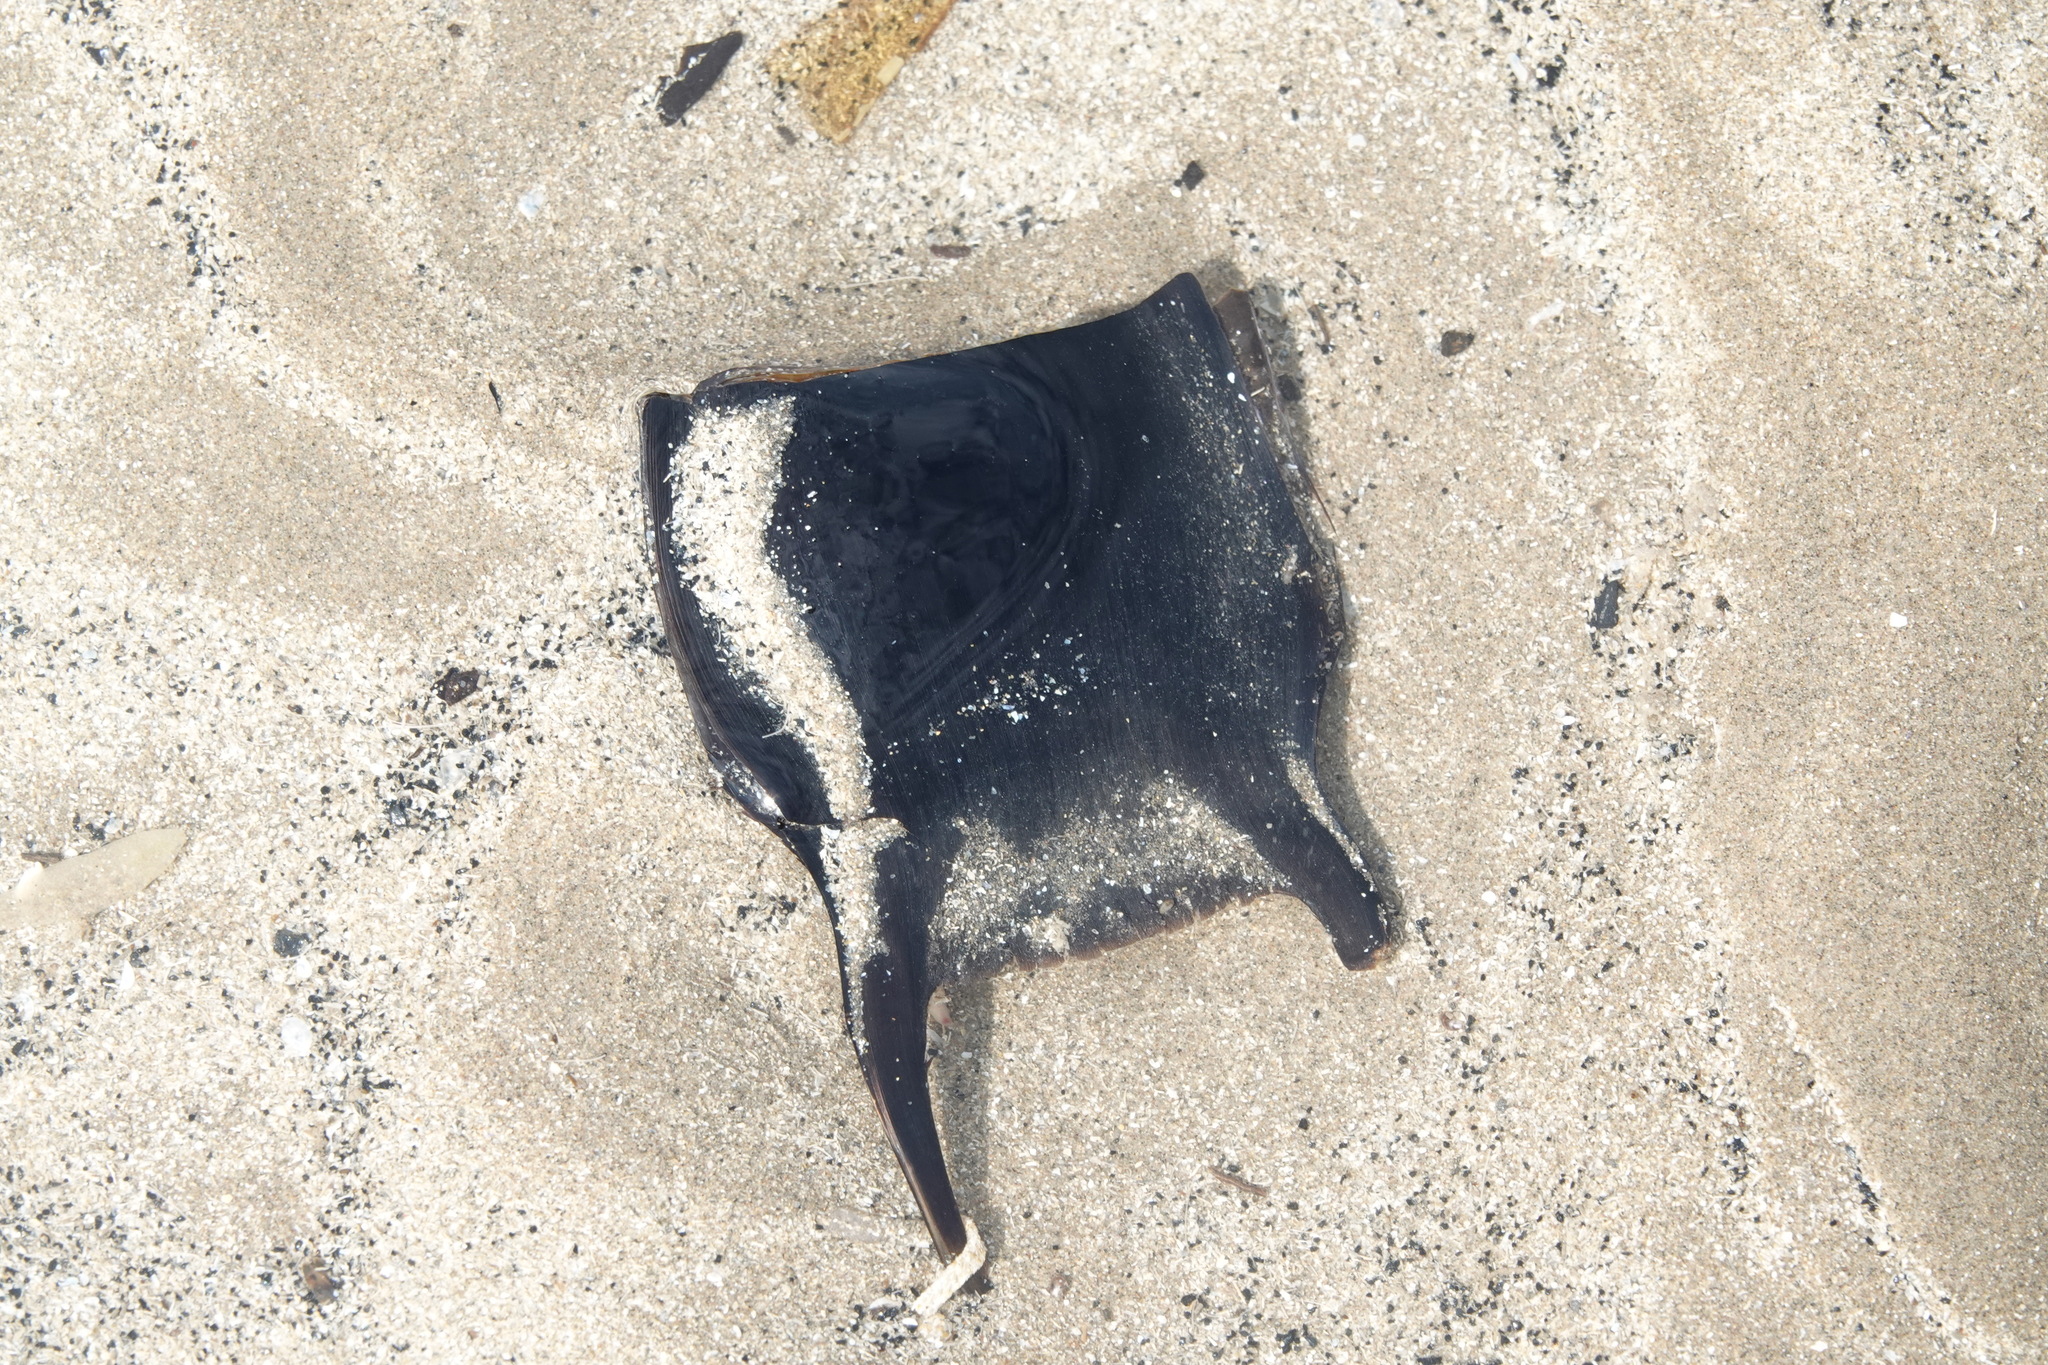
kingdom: Animalia
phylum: Chordata
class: Elasmobranchii
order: Rajiformes
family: Rajidae
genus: Raja
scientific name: Raja clavata
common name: Thornback ray
